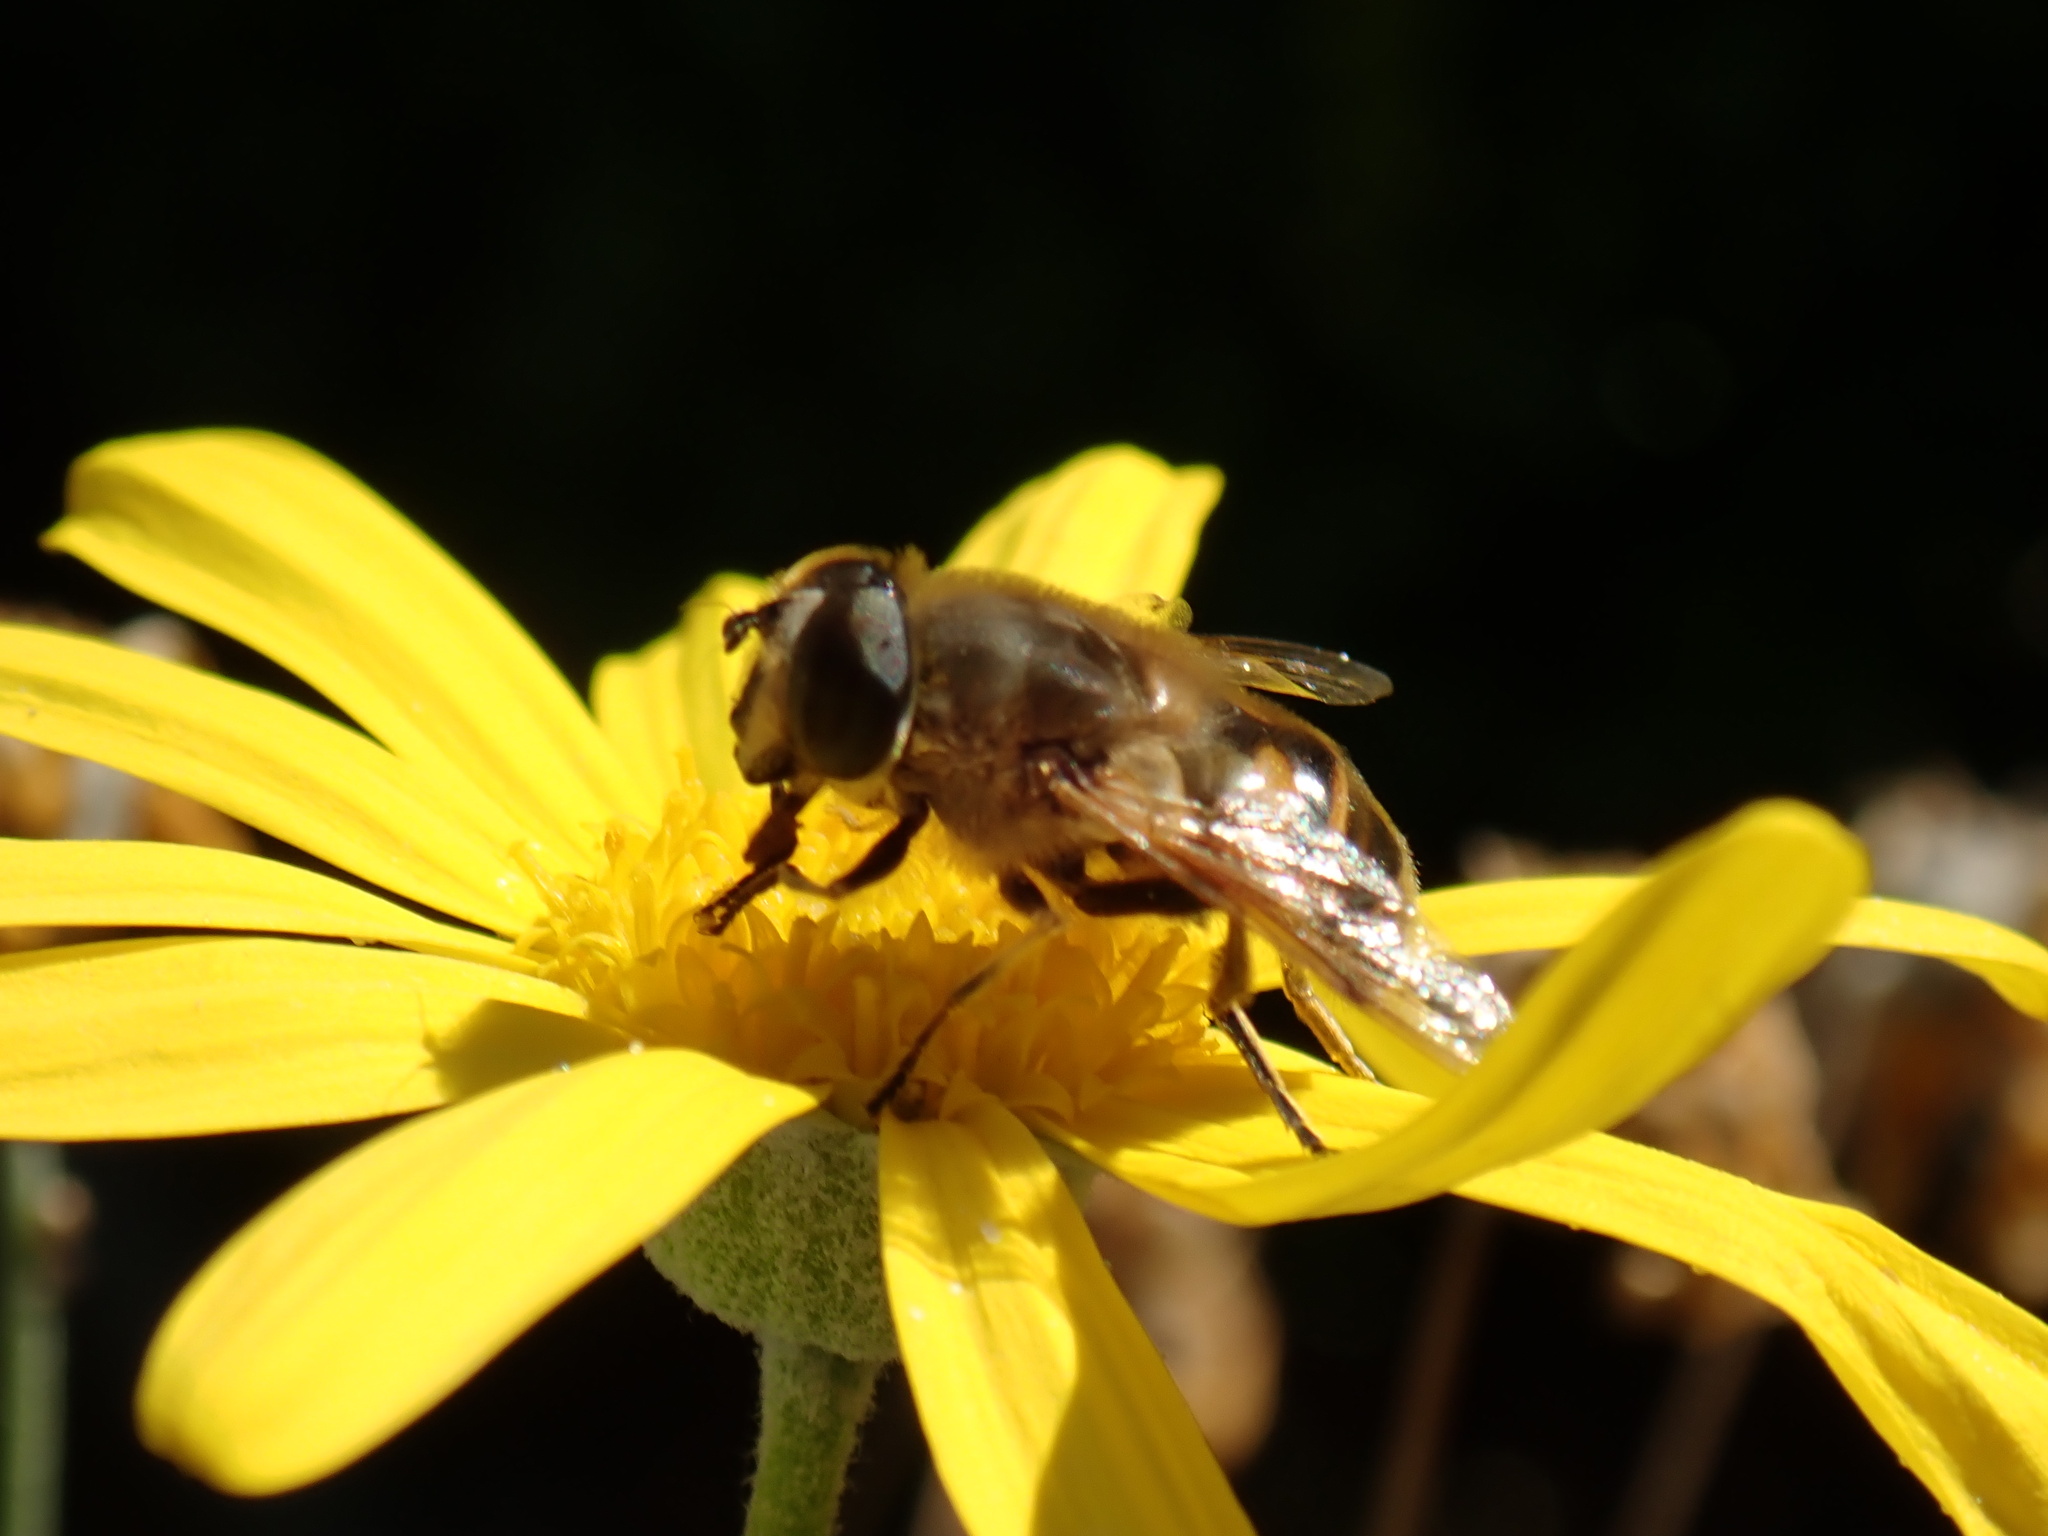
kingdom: Animalia
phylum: Arthropoda
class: Insecta
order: Diptera
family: Syrphidae
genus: Eristalis
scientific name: Eristalis tenax
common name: Drone fly
